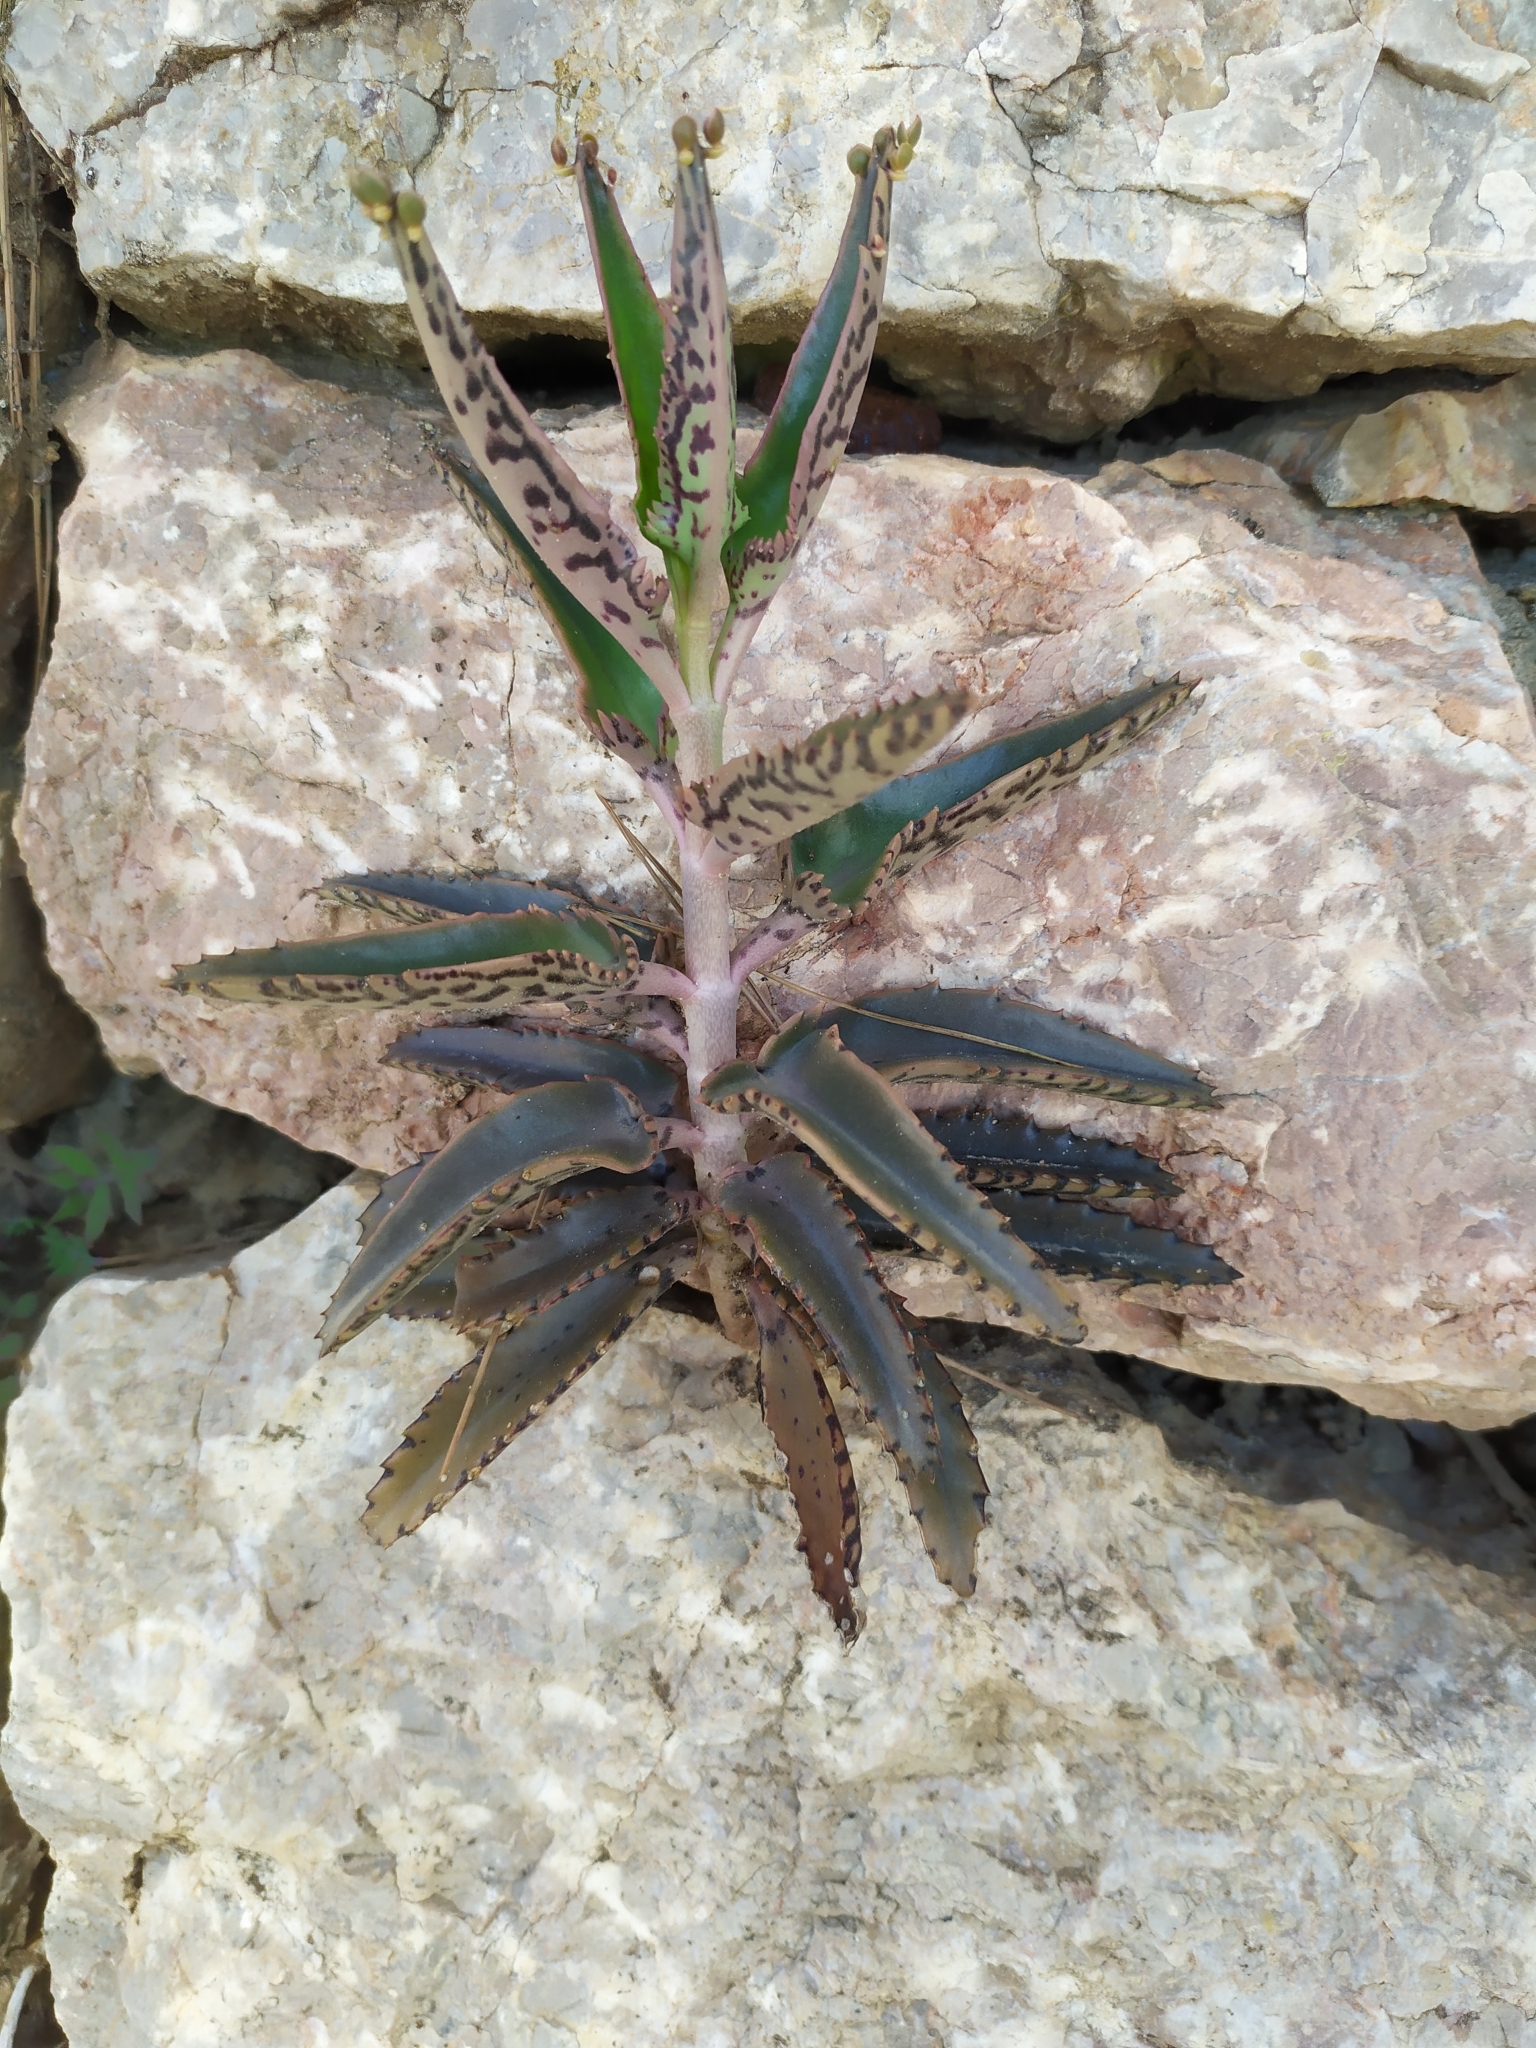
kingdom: Plantae
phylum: Tracheophyta
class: Magnoliopsida
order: Saxifragales
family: Crassulaceae
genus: Kalanchoe
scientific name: Kalanchoe houghtonii
